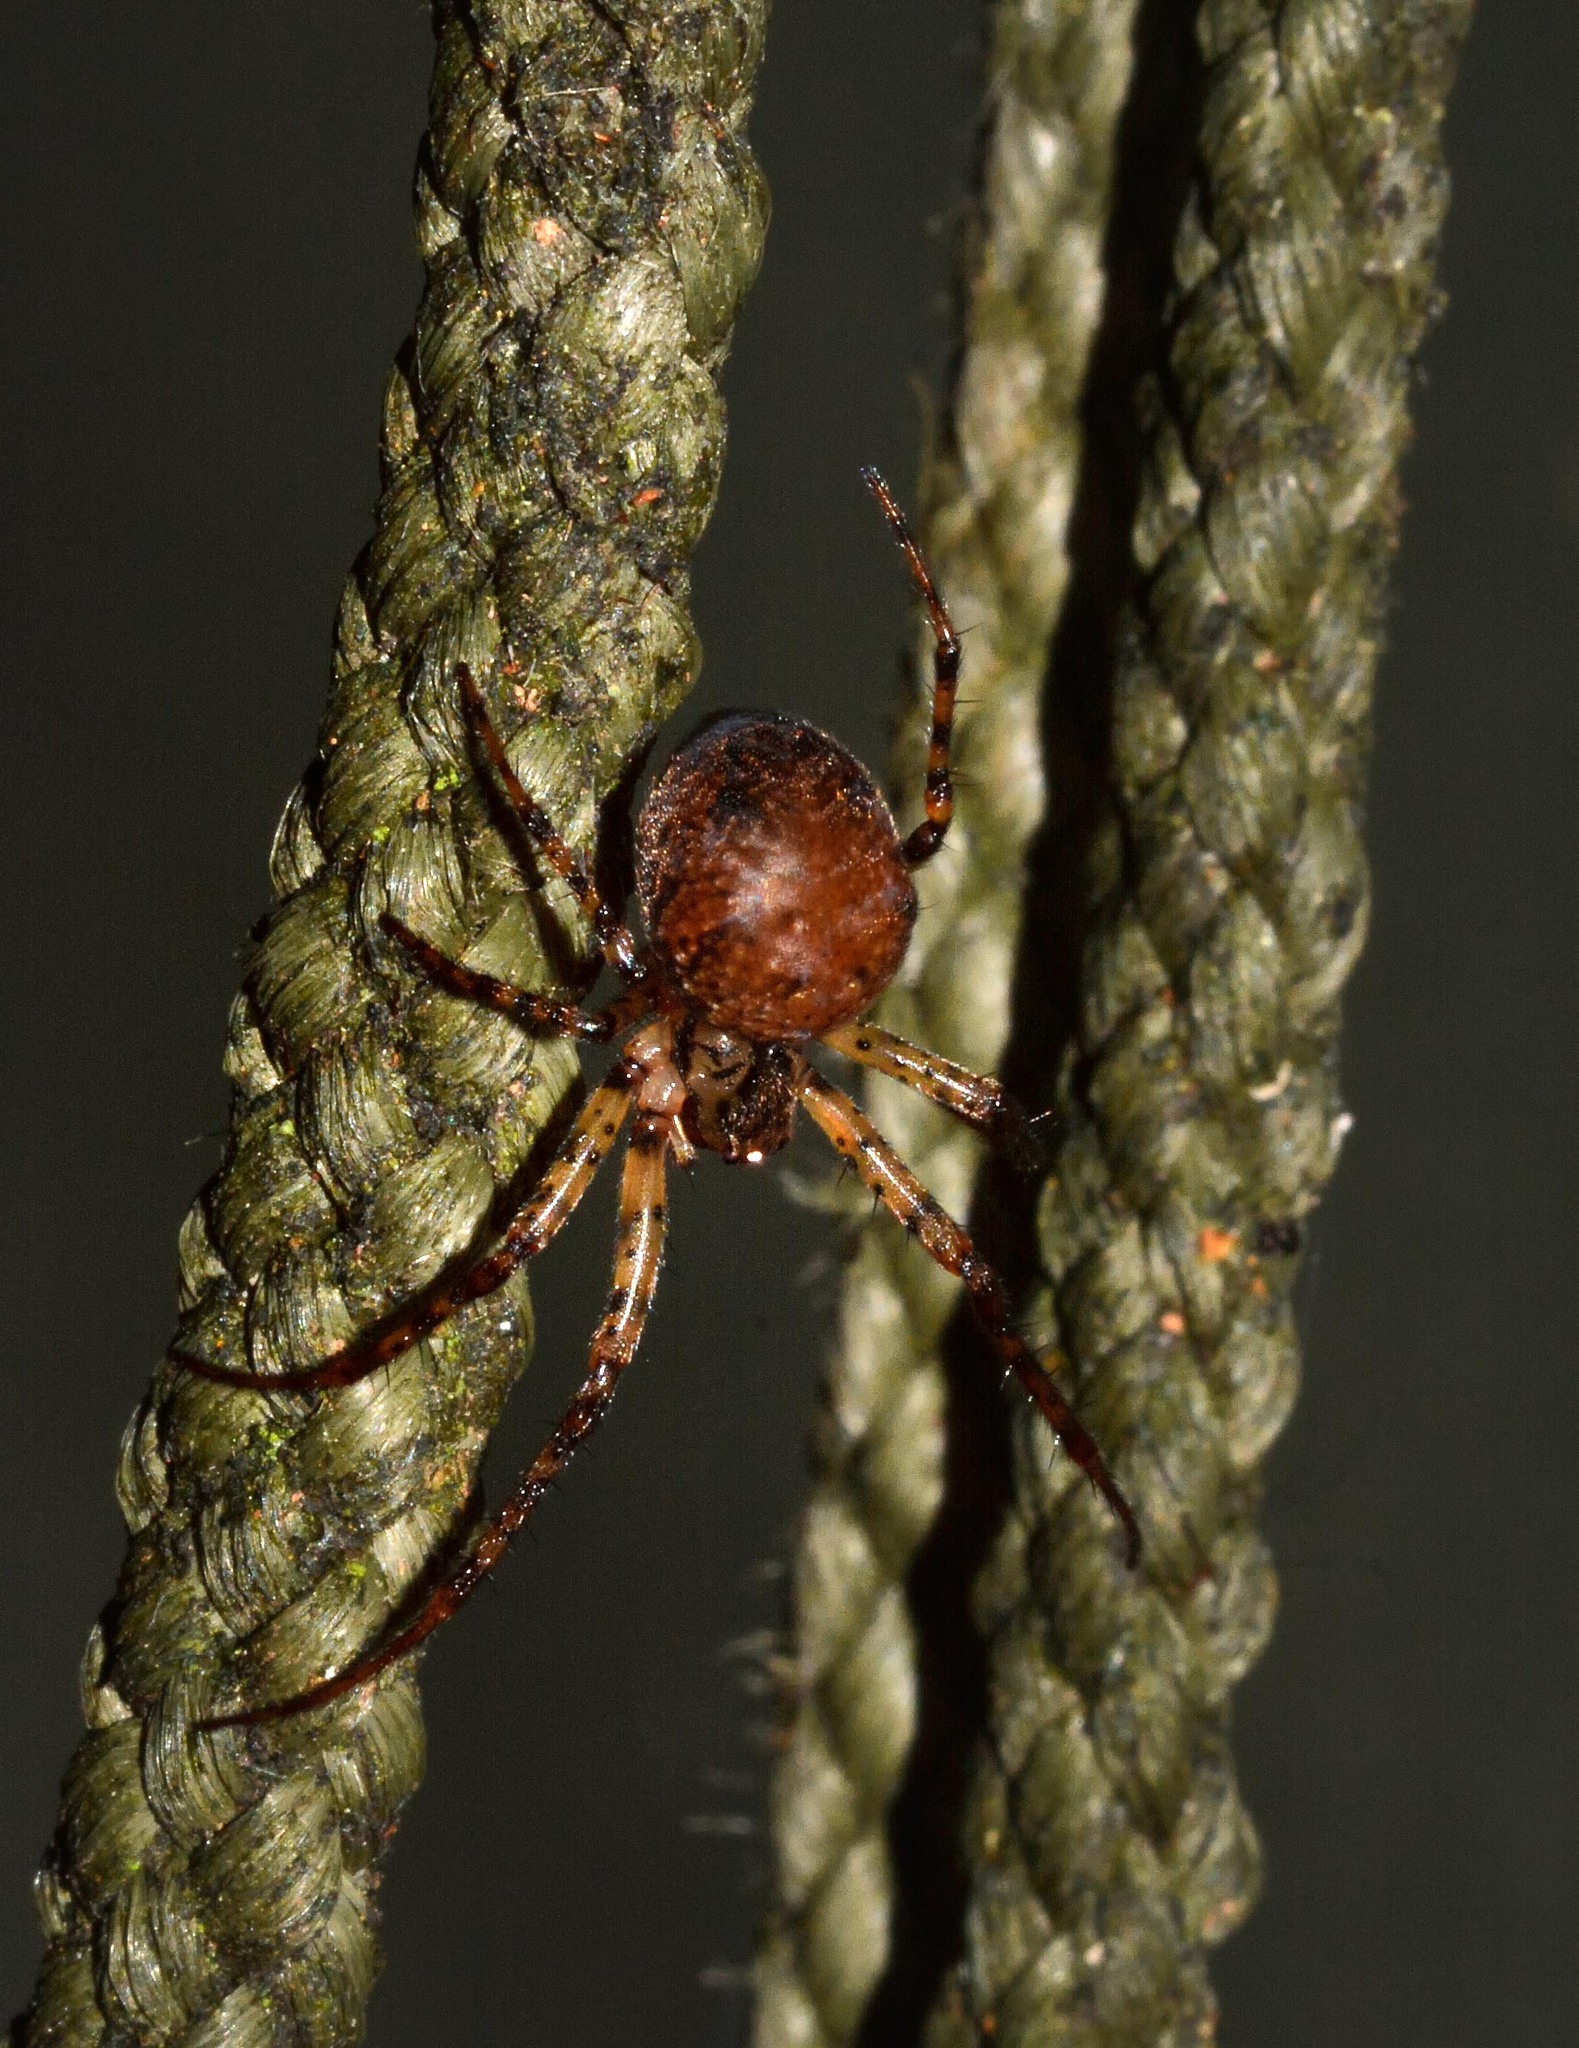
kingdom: Animalia
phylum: Arthropoda
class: Arachnida
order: Araneae
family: Tetragnathidae
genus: Metellina
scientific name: Metellina merianae
